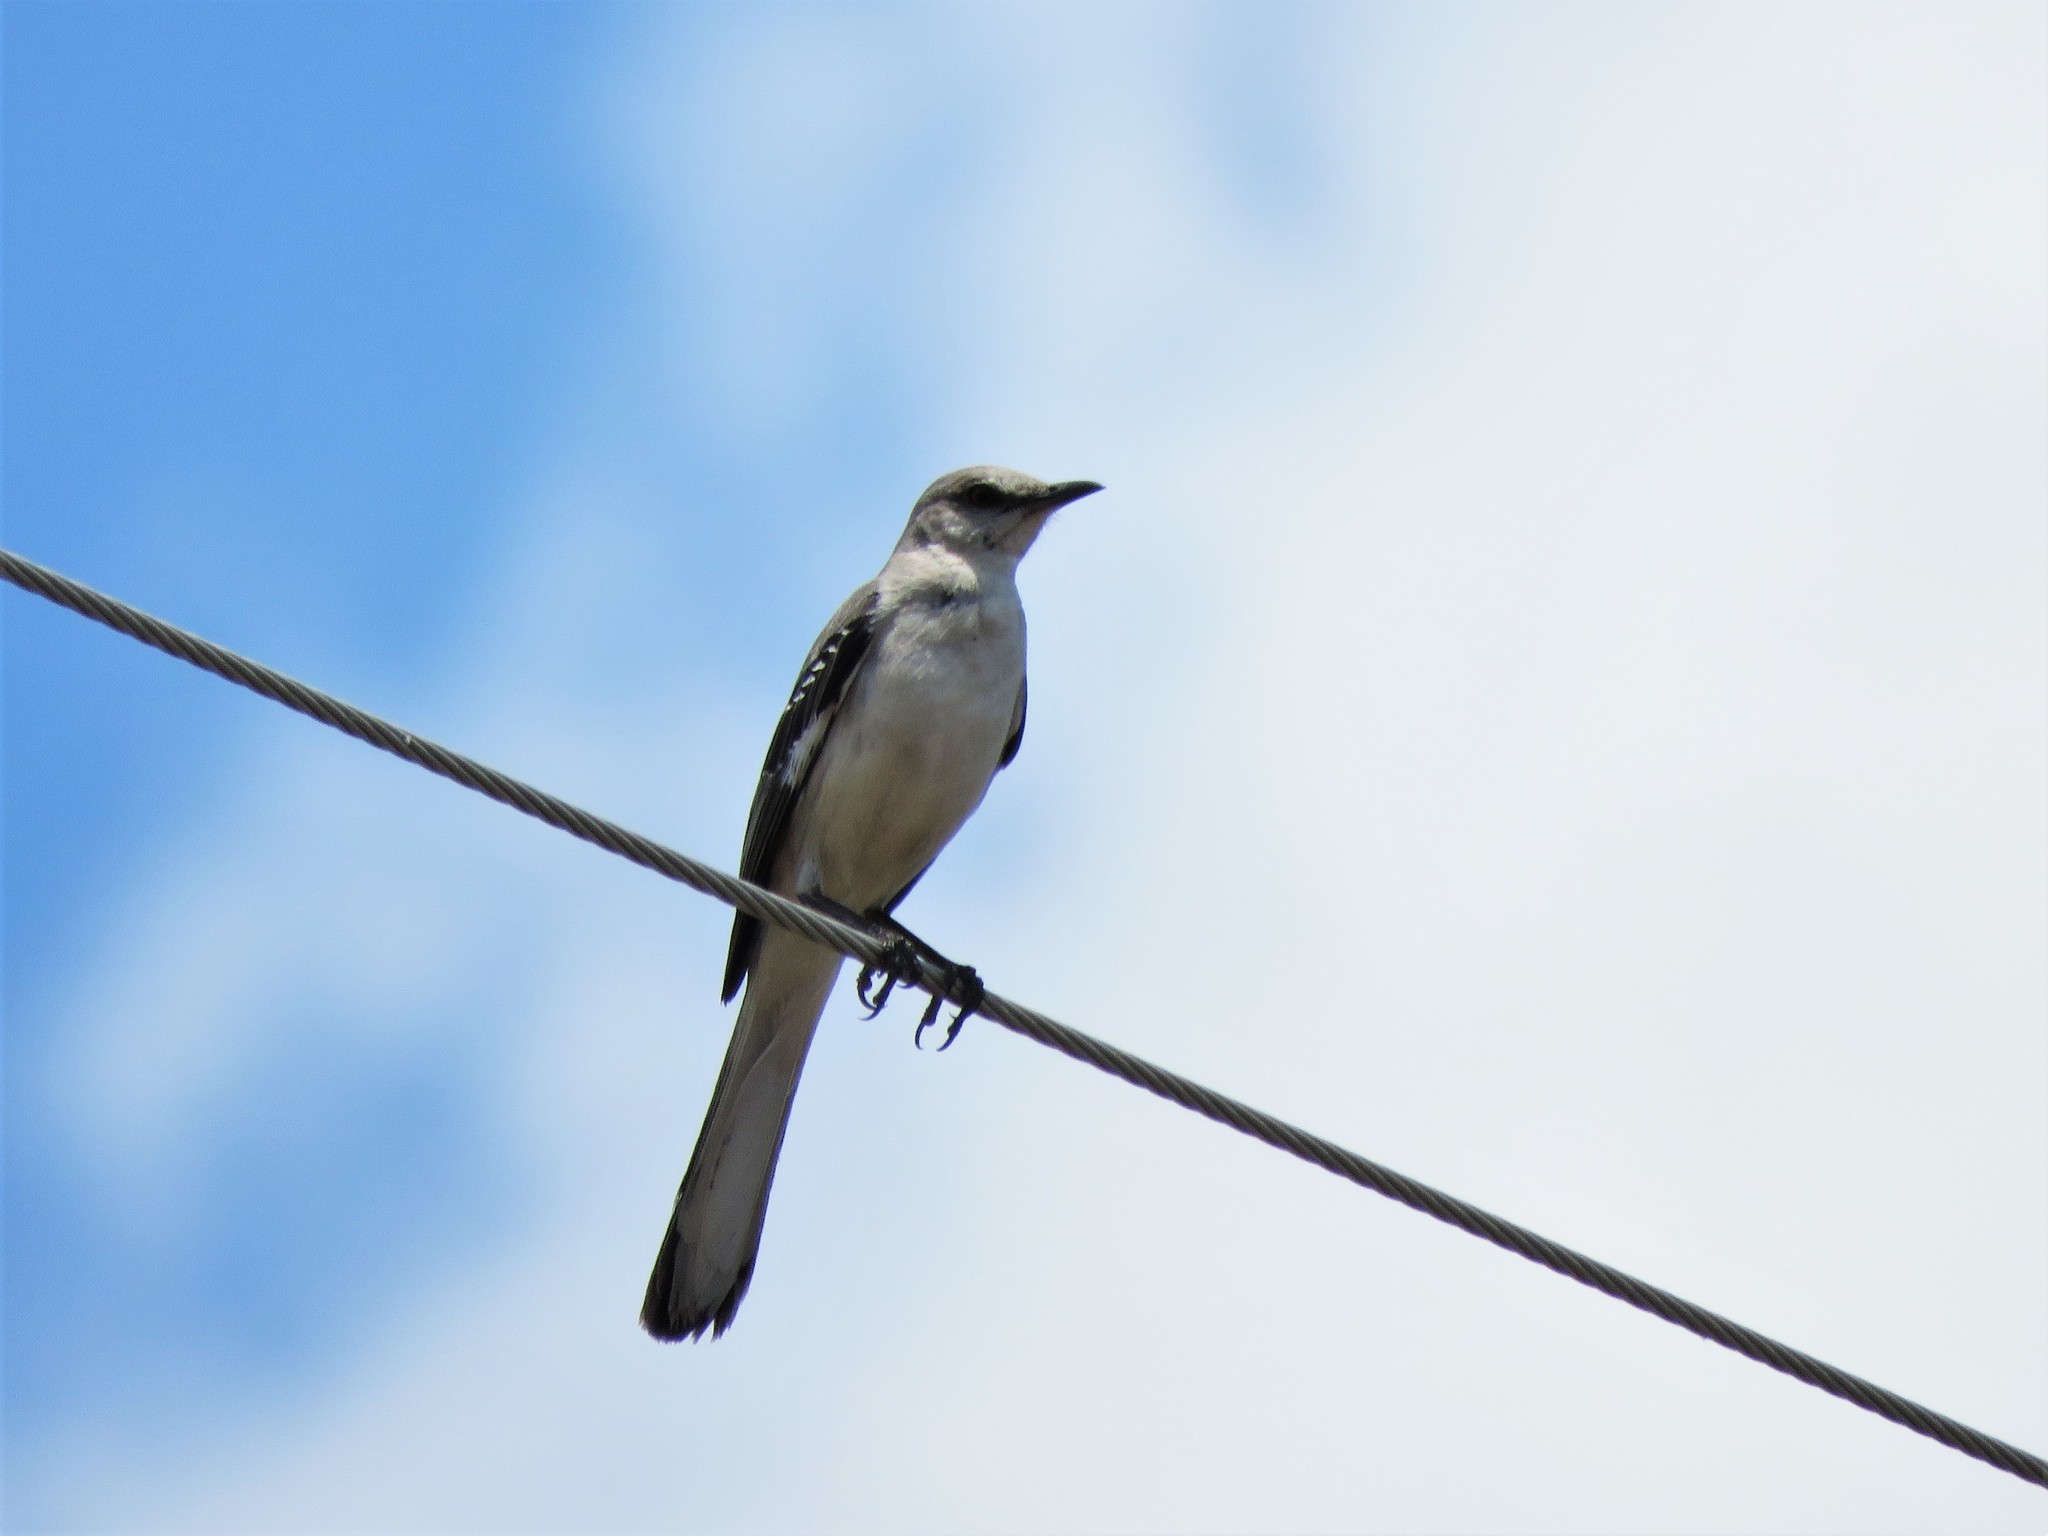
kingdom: Animalia
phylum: Chordata
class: Aves
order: Passeriformes
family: Mimidae
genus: Mimus
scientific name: Mimus polyglottos
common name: Northern mockingbird
